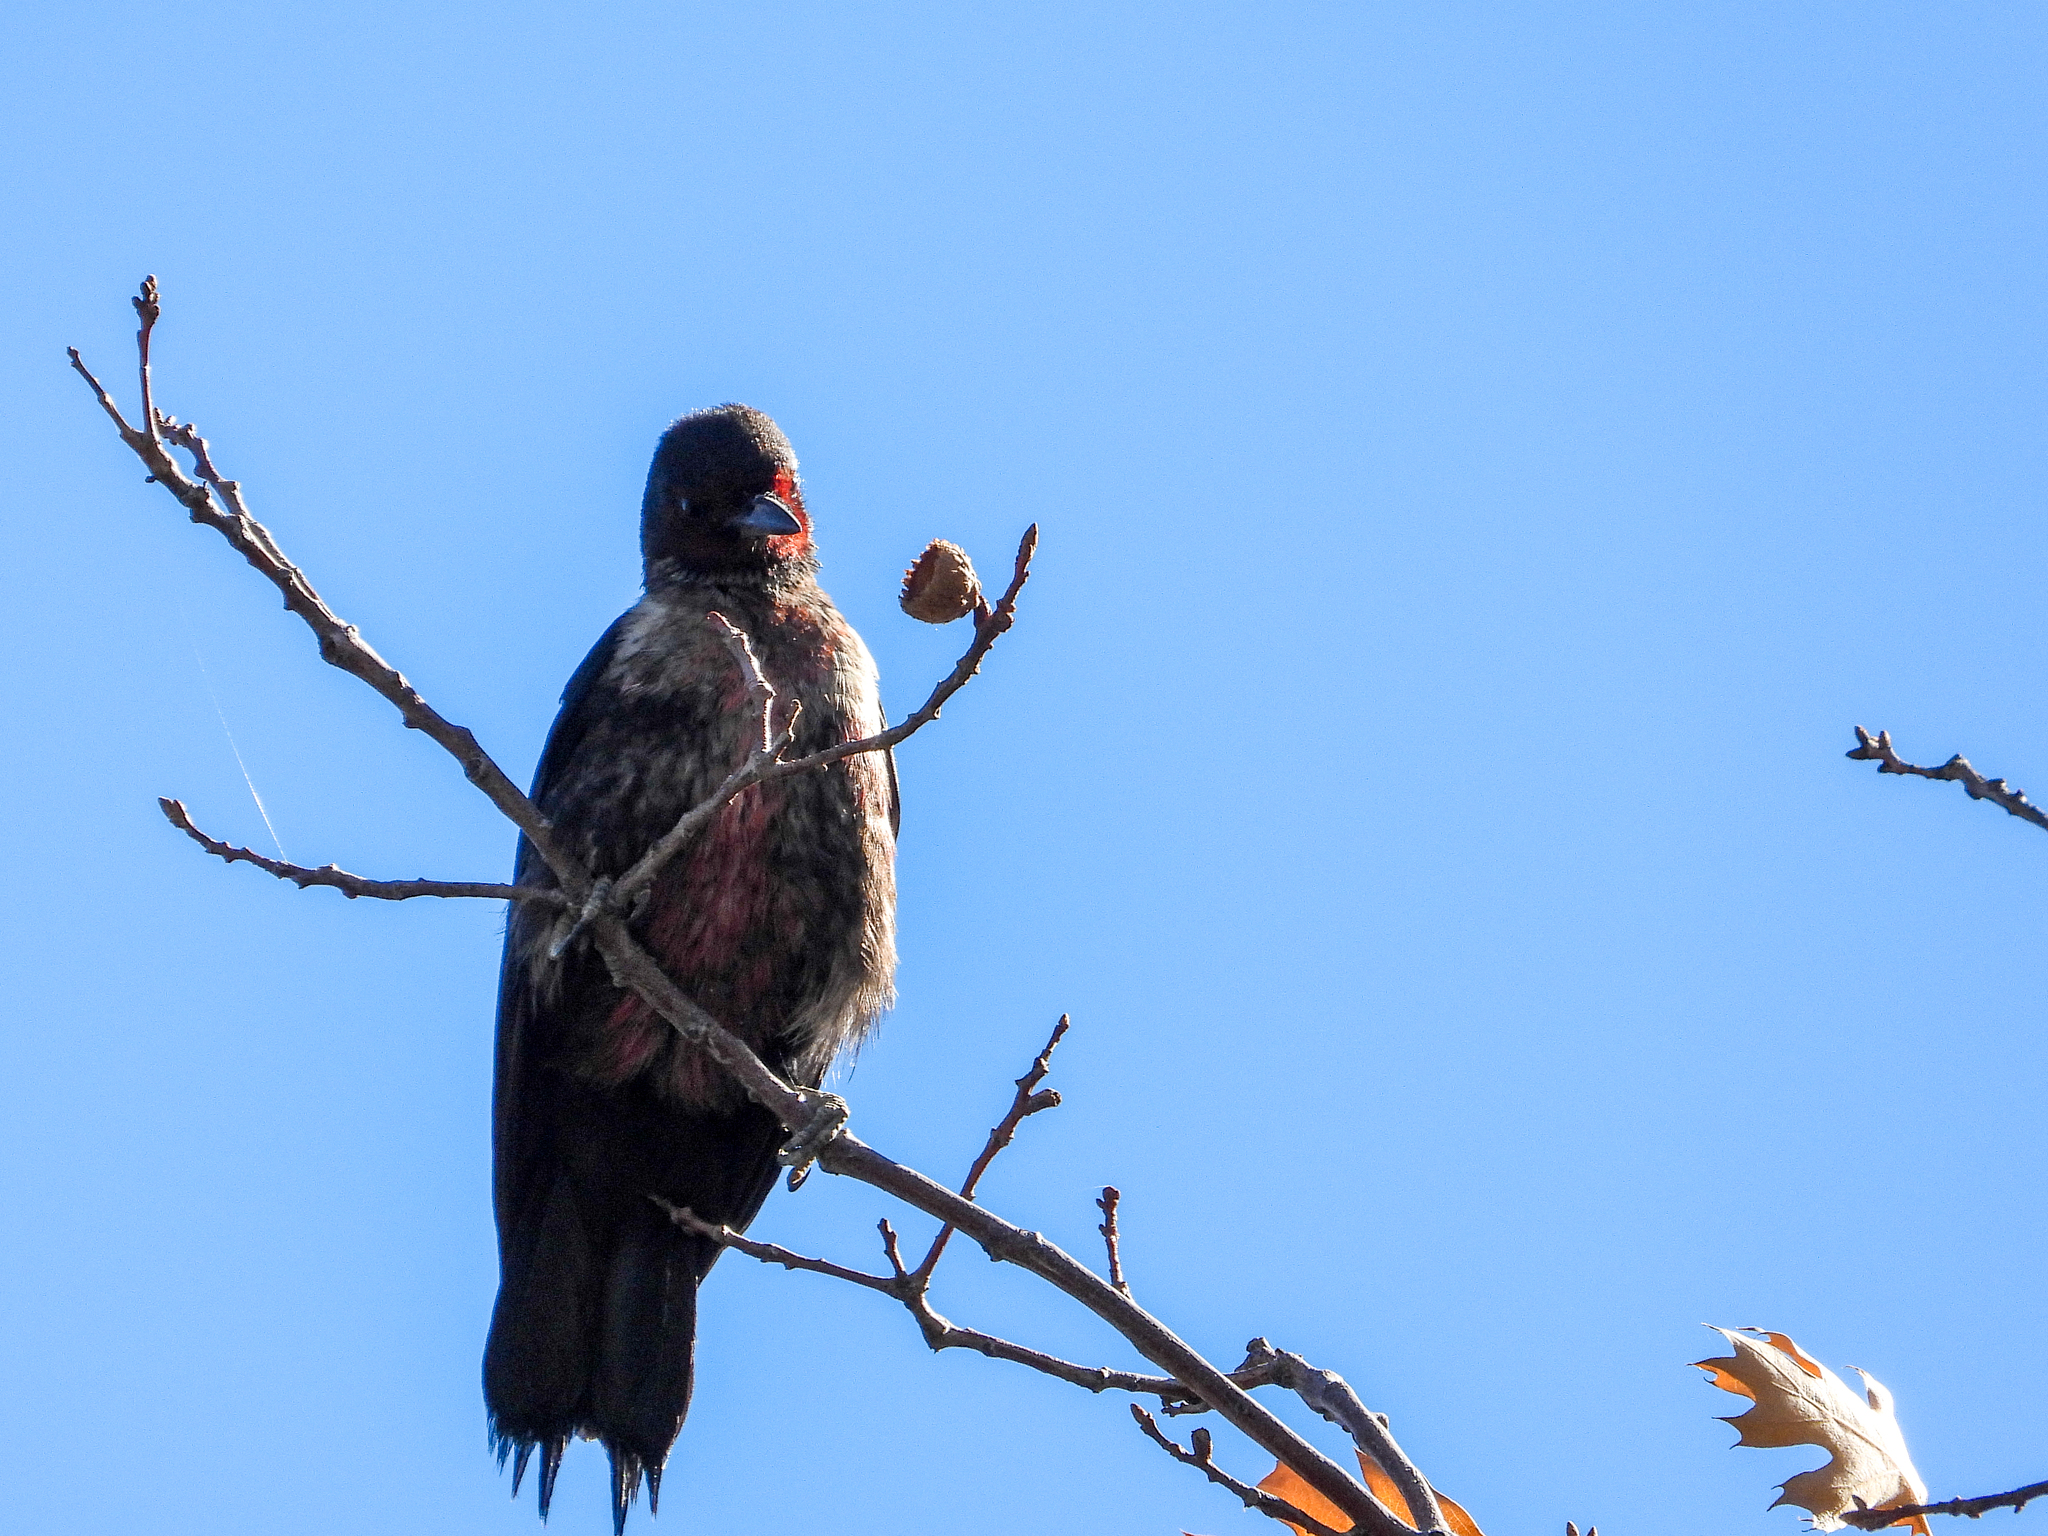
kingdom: Animalia
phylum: Chordata
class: Aves
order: Piciformes
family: Picidae
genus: Melanerpes
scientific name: Melanerpes lewis
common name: Lewis's woodpecker
